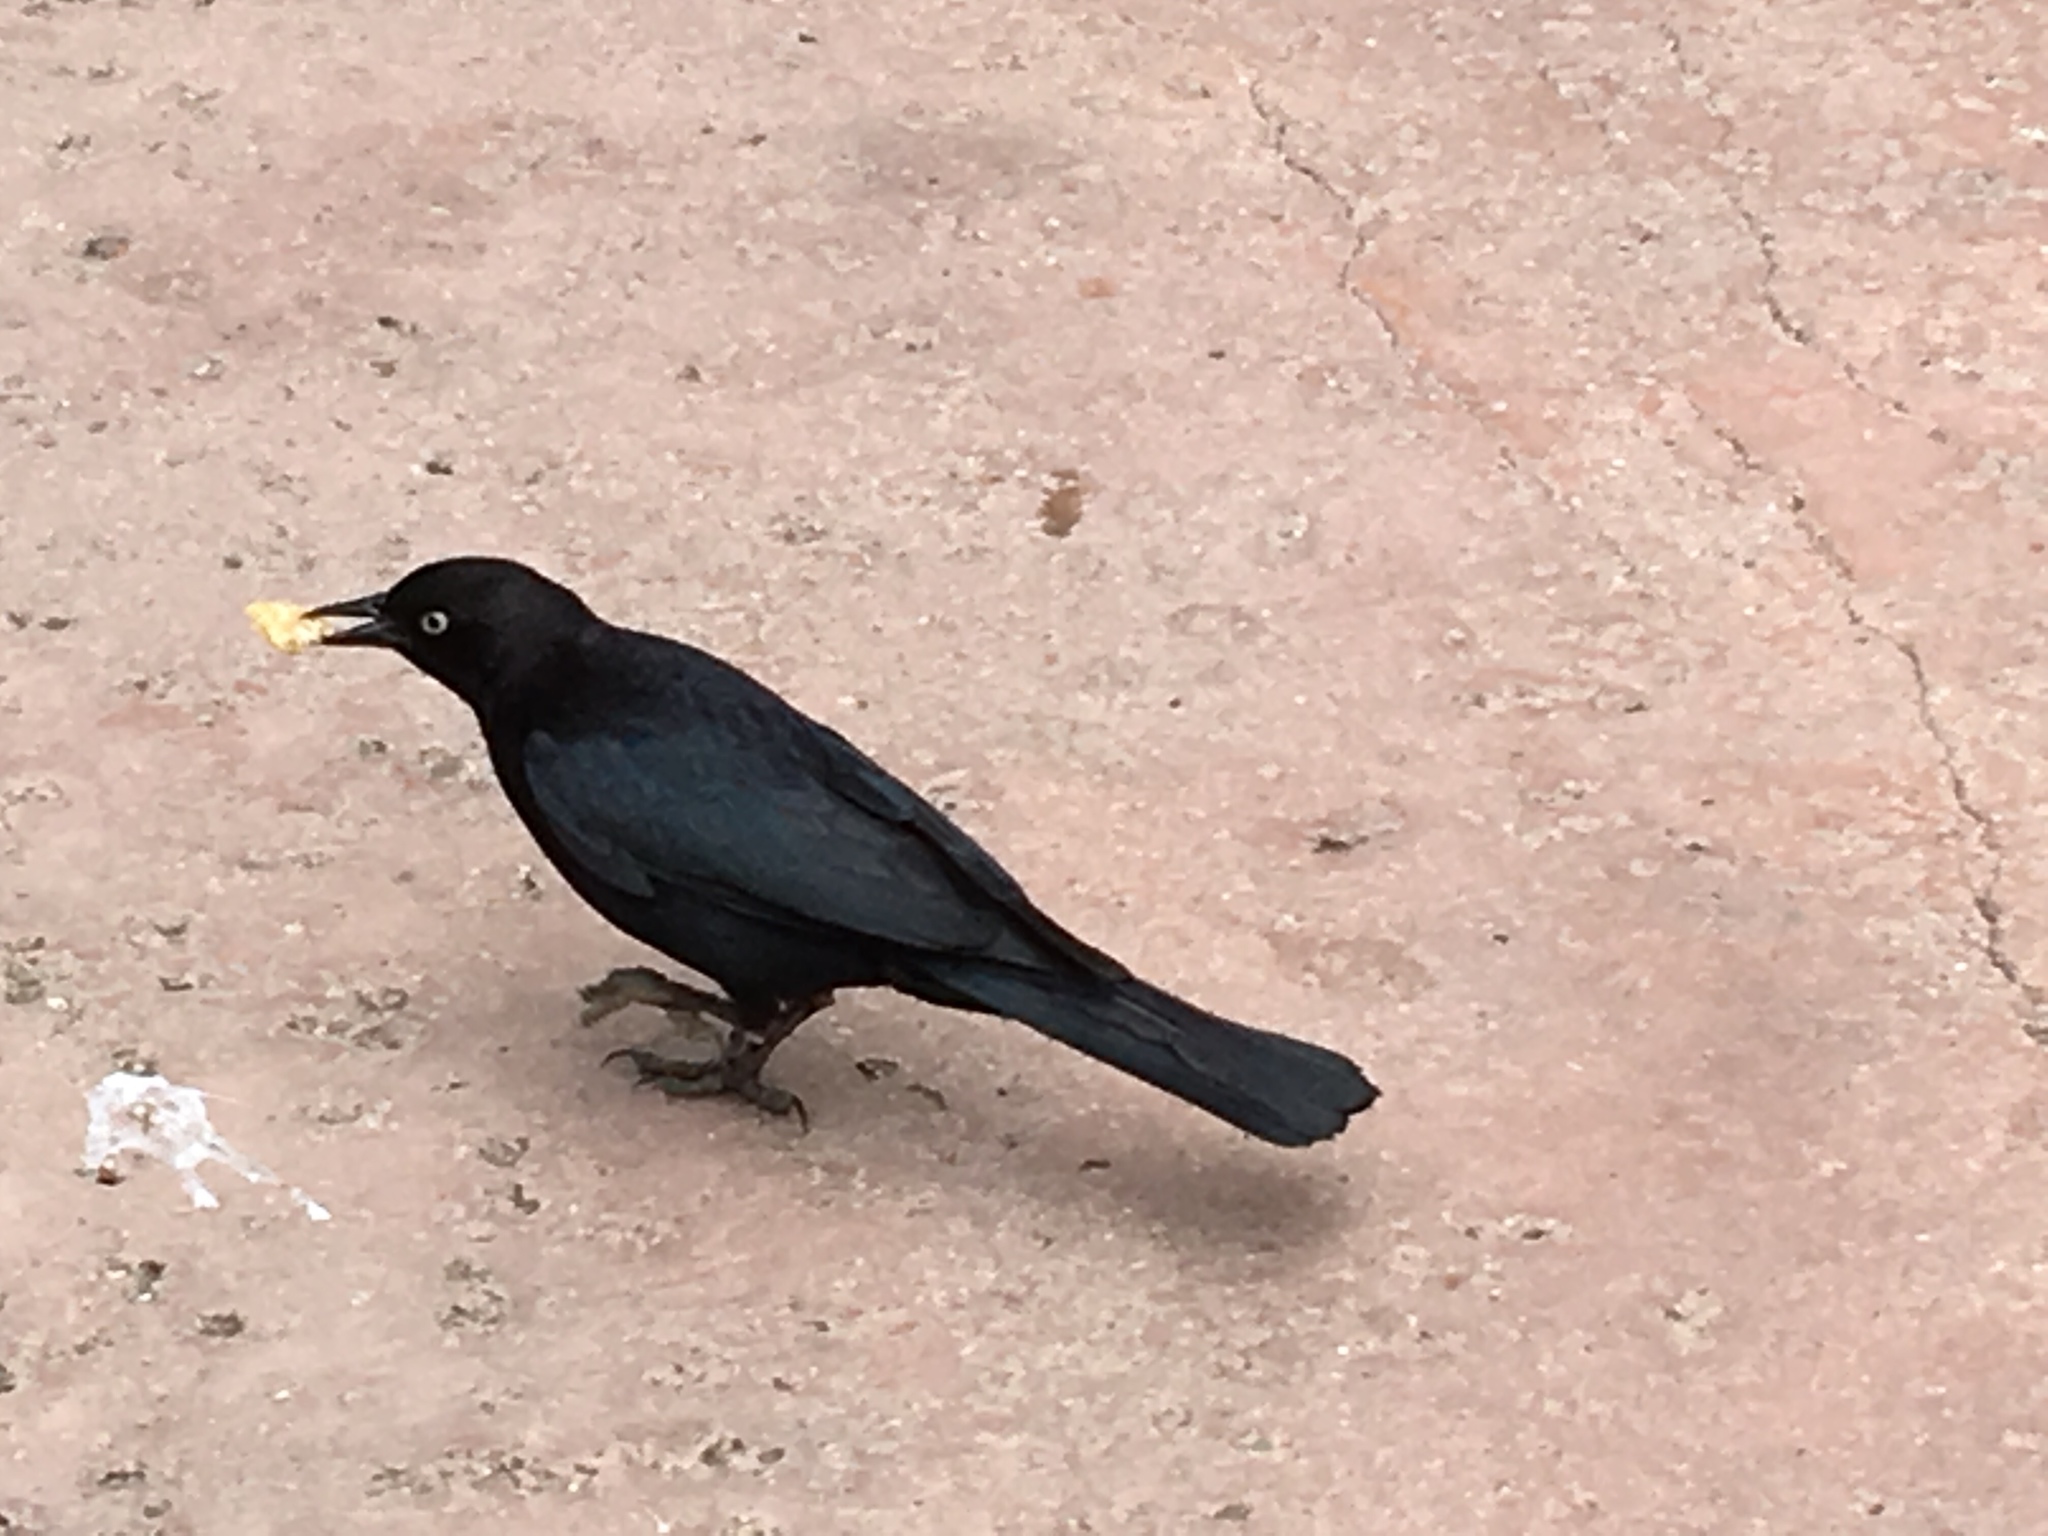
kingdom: Animalia
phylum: Chordata
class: Aves
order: Passeriformes
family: Icteridae
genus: Euphagus
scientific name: Euphagus cyanocephalus
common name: Brewer's blackbird
